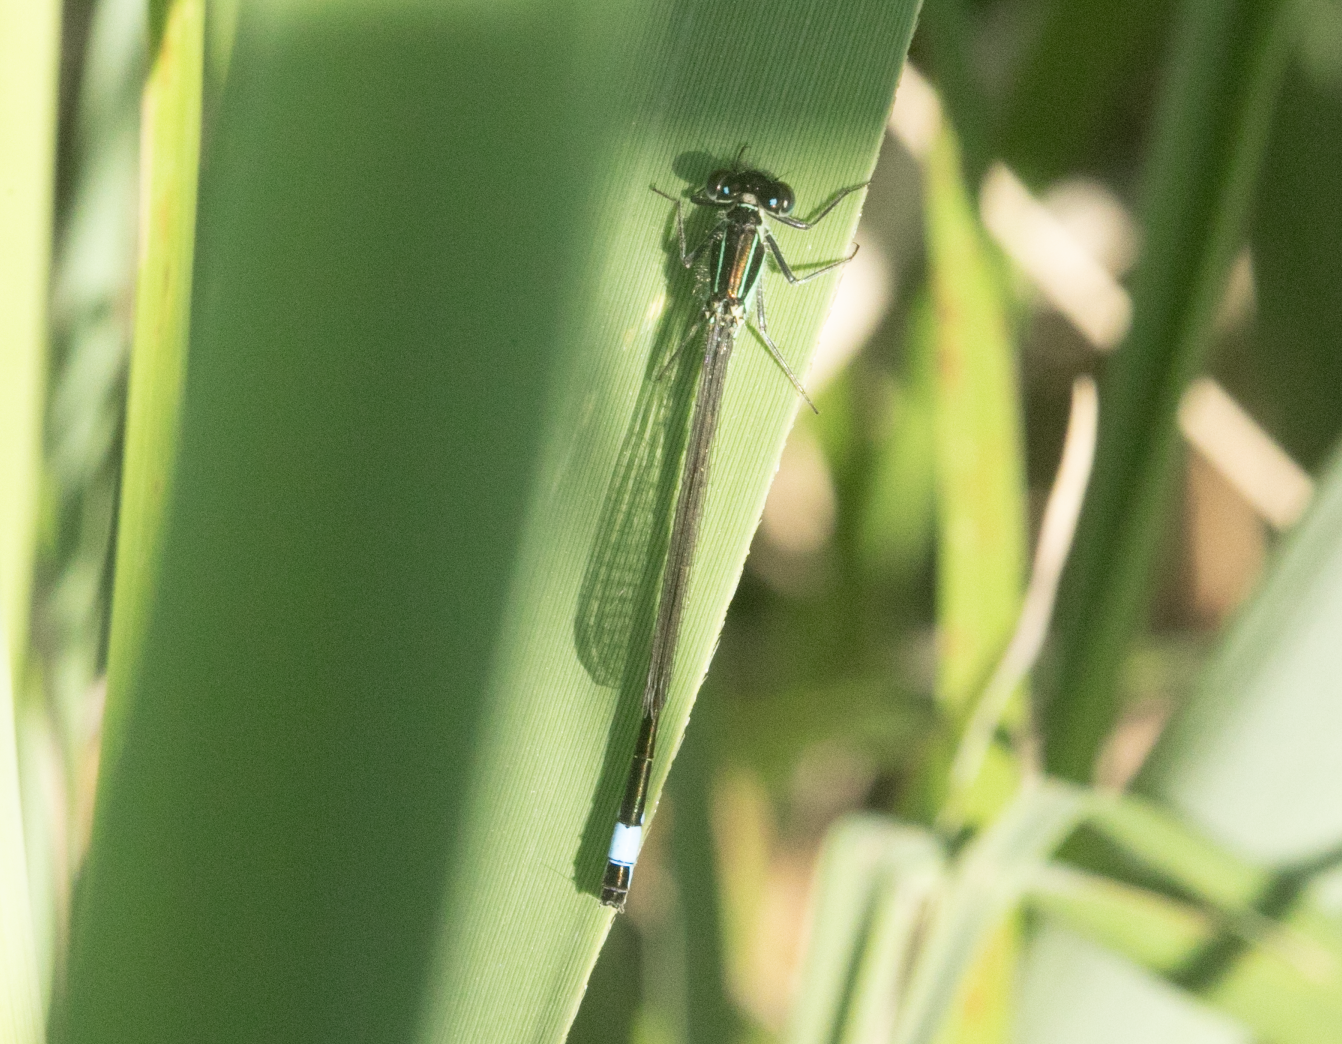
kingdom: Animalia
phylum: Arthropoda
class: Insecta
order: Odonata
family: Coenagrionidae
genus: Ischnura
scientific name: Ischnura elegans
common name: Blue-tailed damselfly
